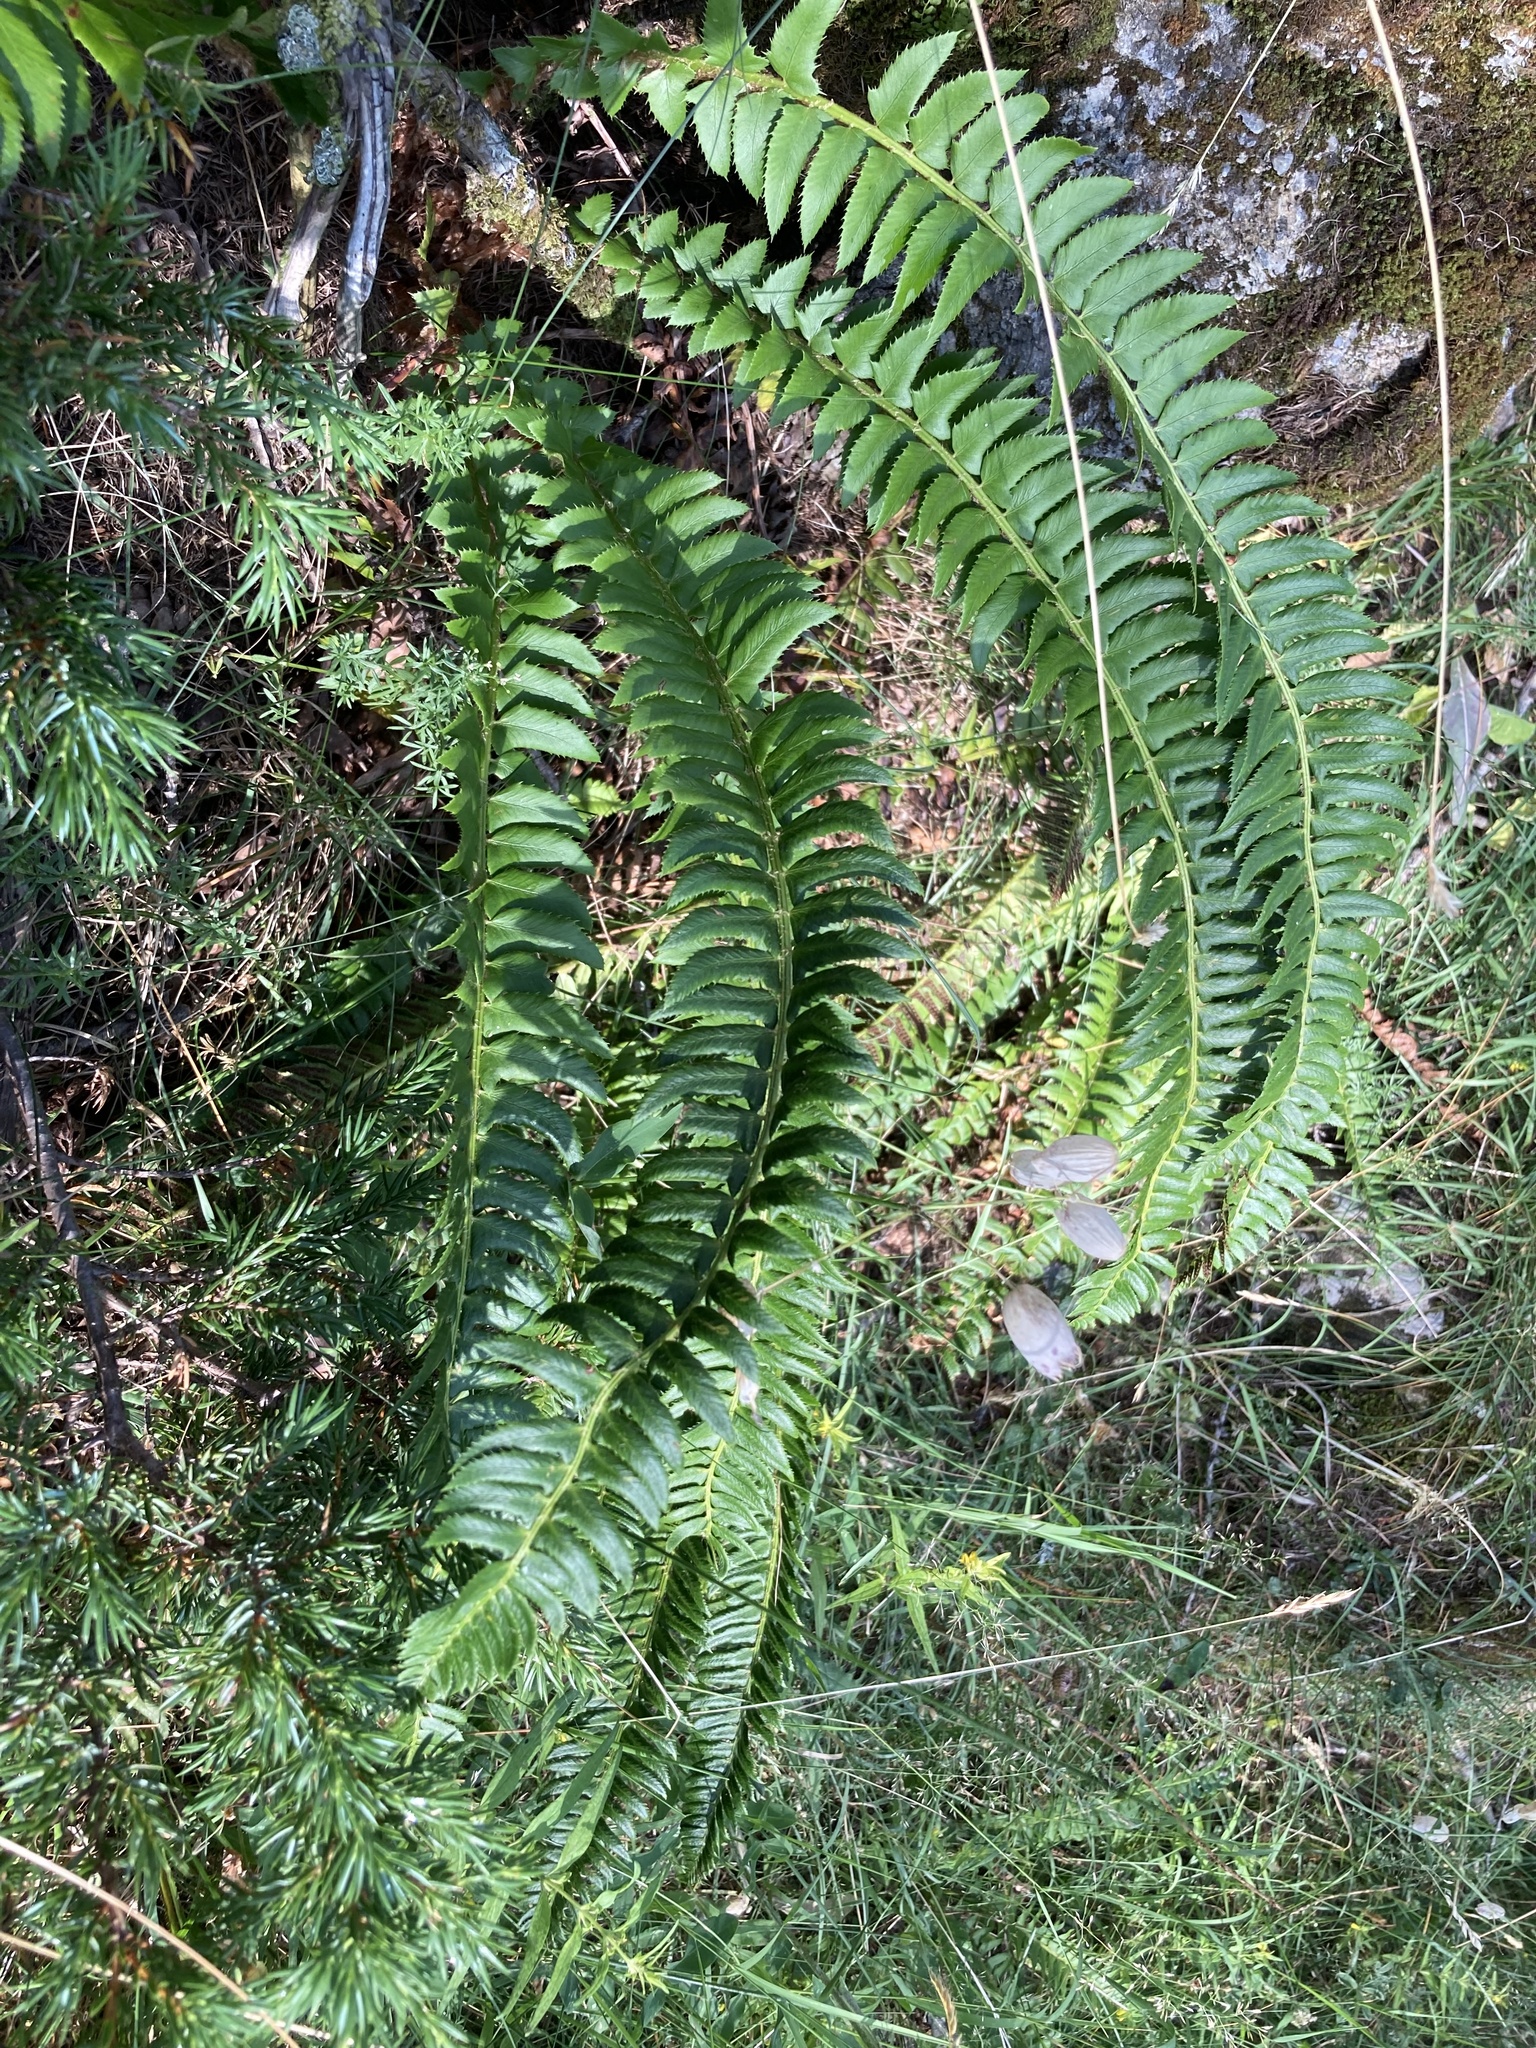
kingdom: Plantae
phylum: Tracheophyta
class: Polypodiopsida
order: Polypodiales
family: Dryopteridaceae
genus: Polystichum
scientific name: Polystichum lonchitis
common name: Holly fern
